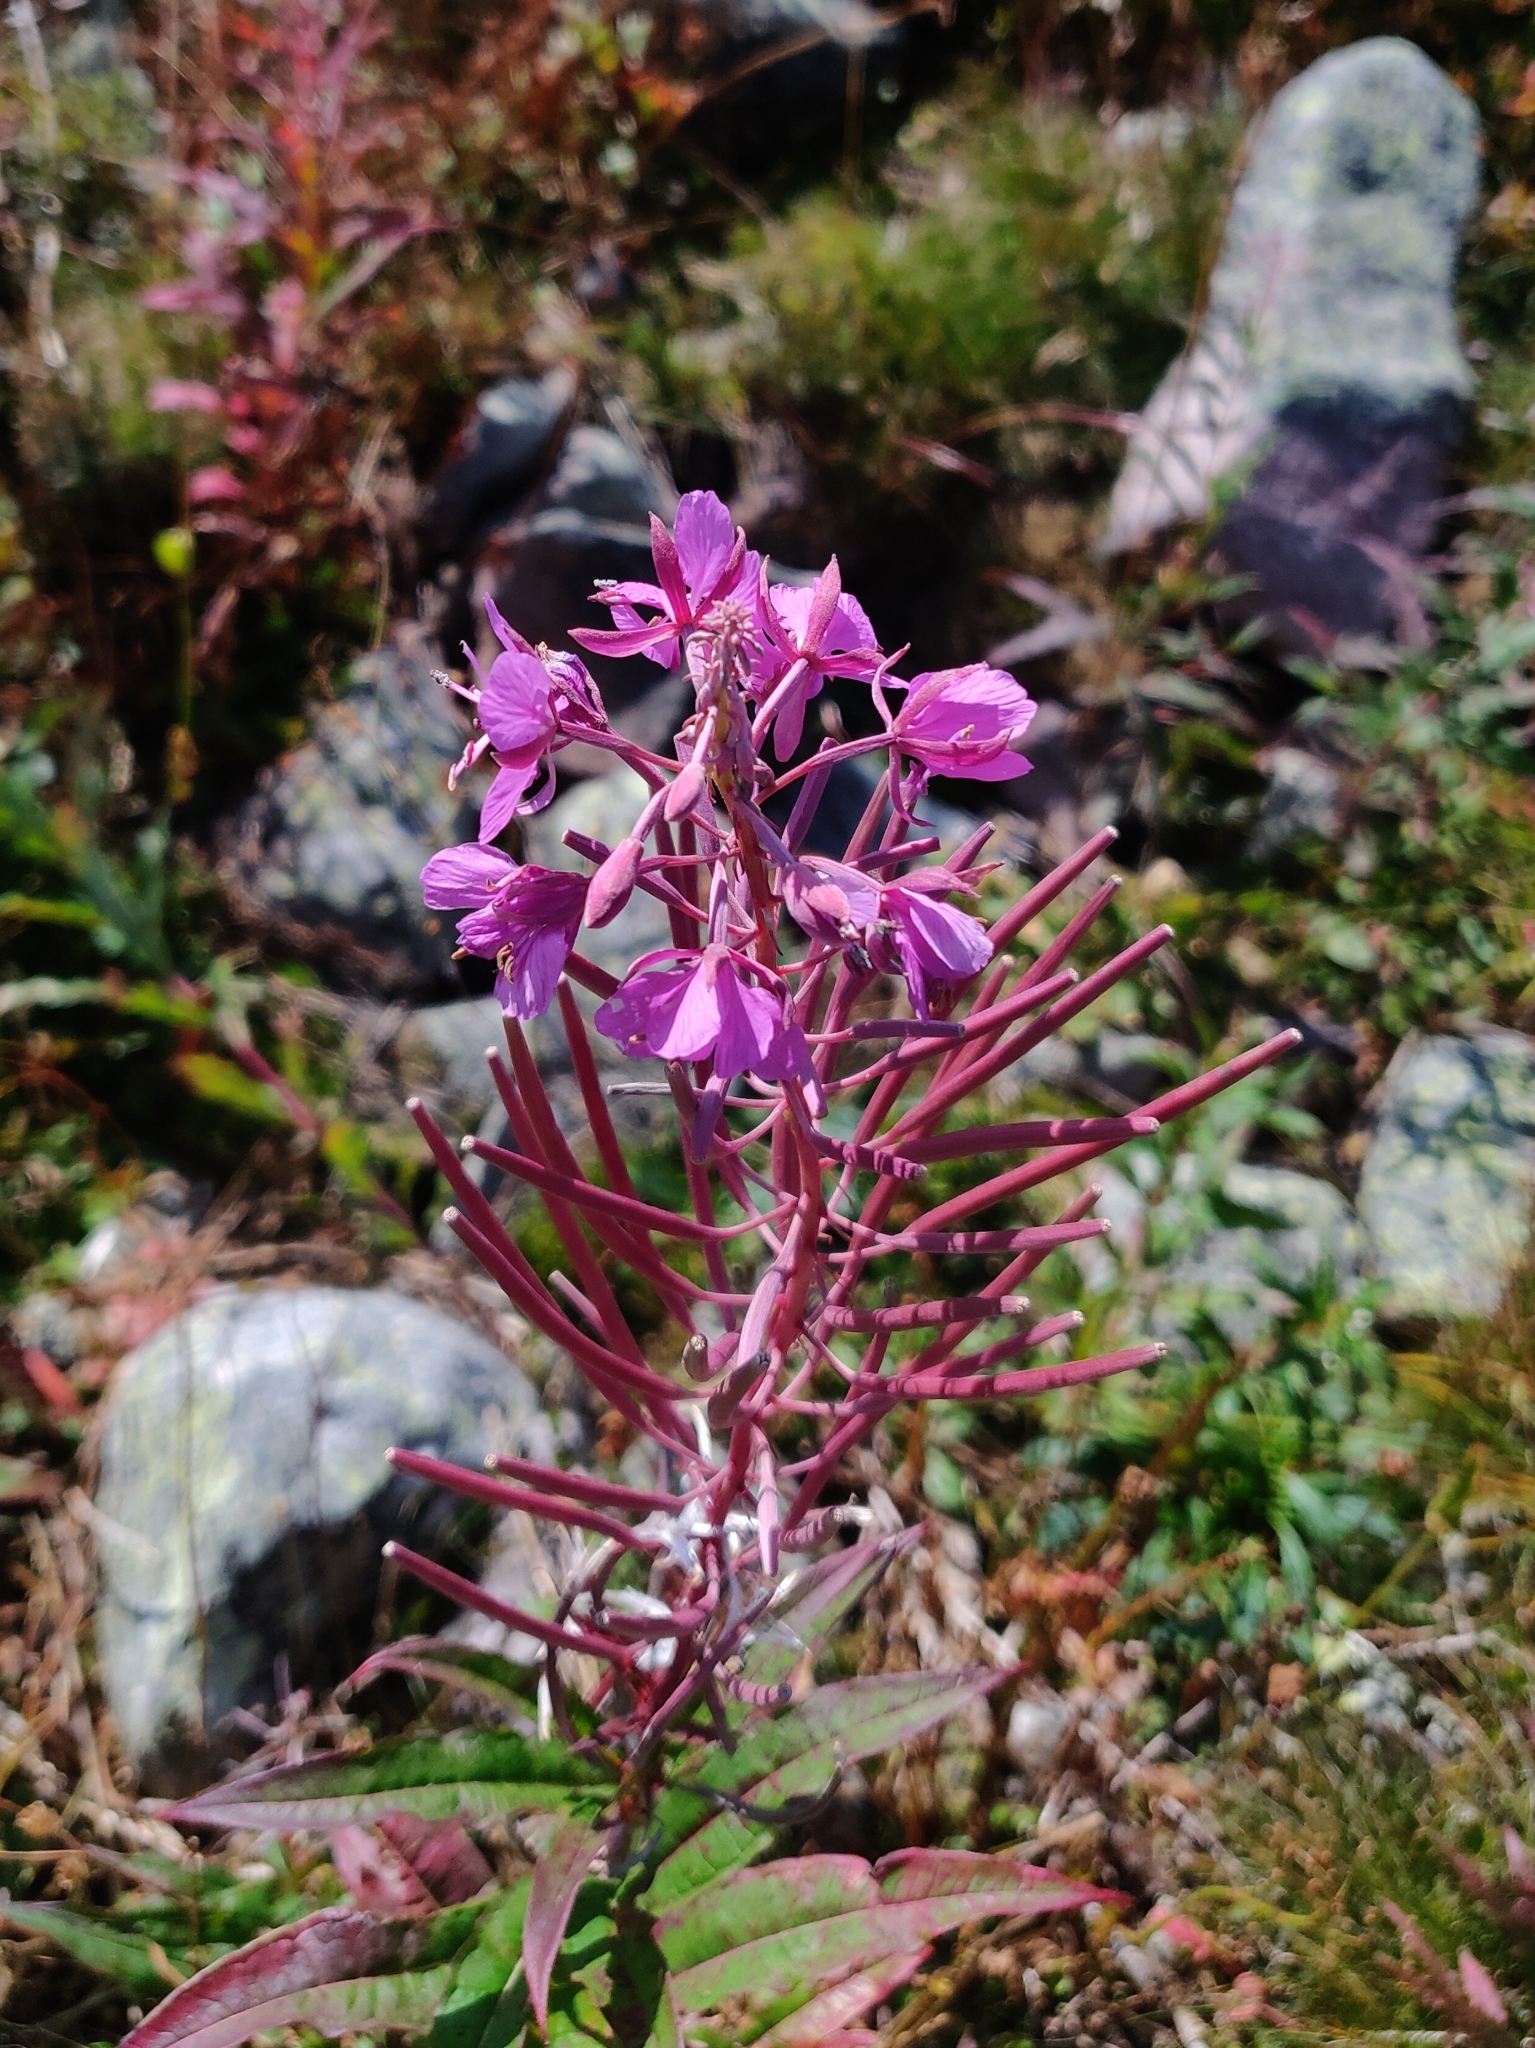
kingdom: Plantae
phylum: Tracheophyta
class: Magnoliopsida
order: Myrtales
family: Onagraceae
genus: Chamaenerion
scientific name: Chamaenerion angustifolium
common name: Fireweed
